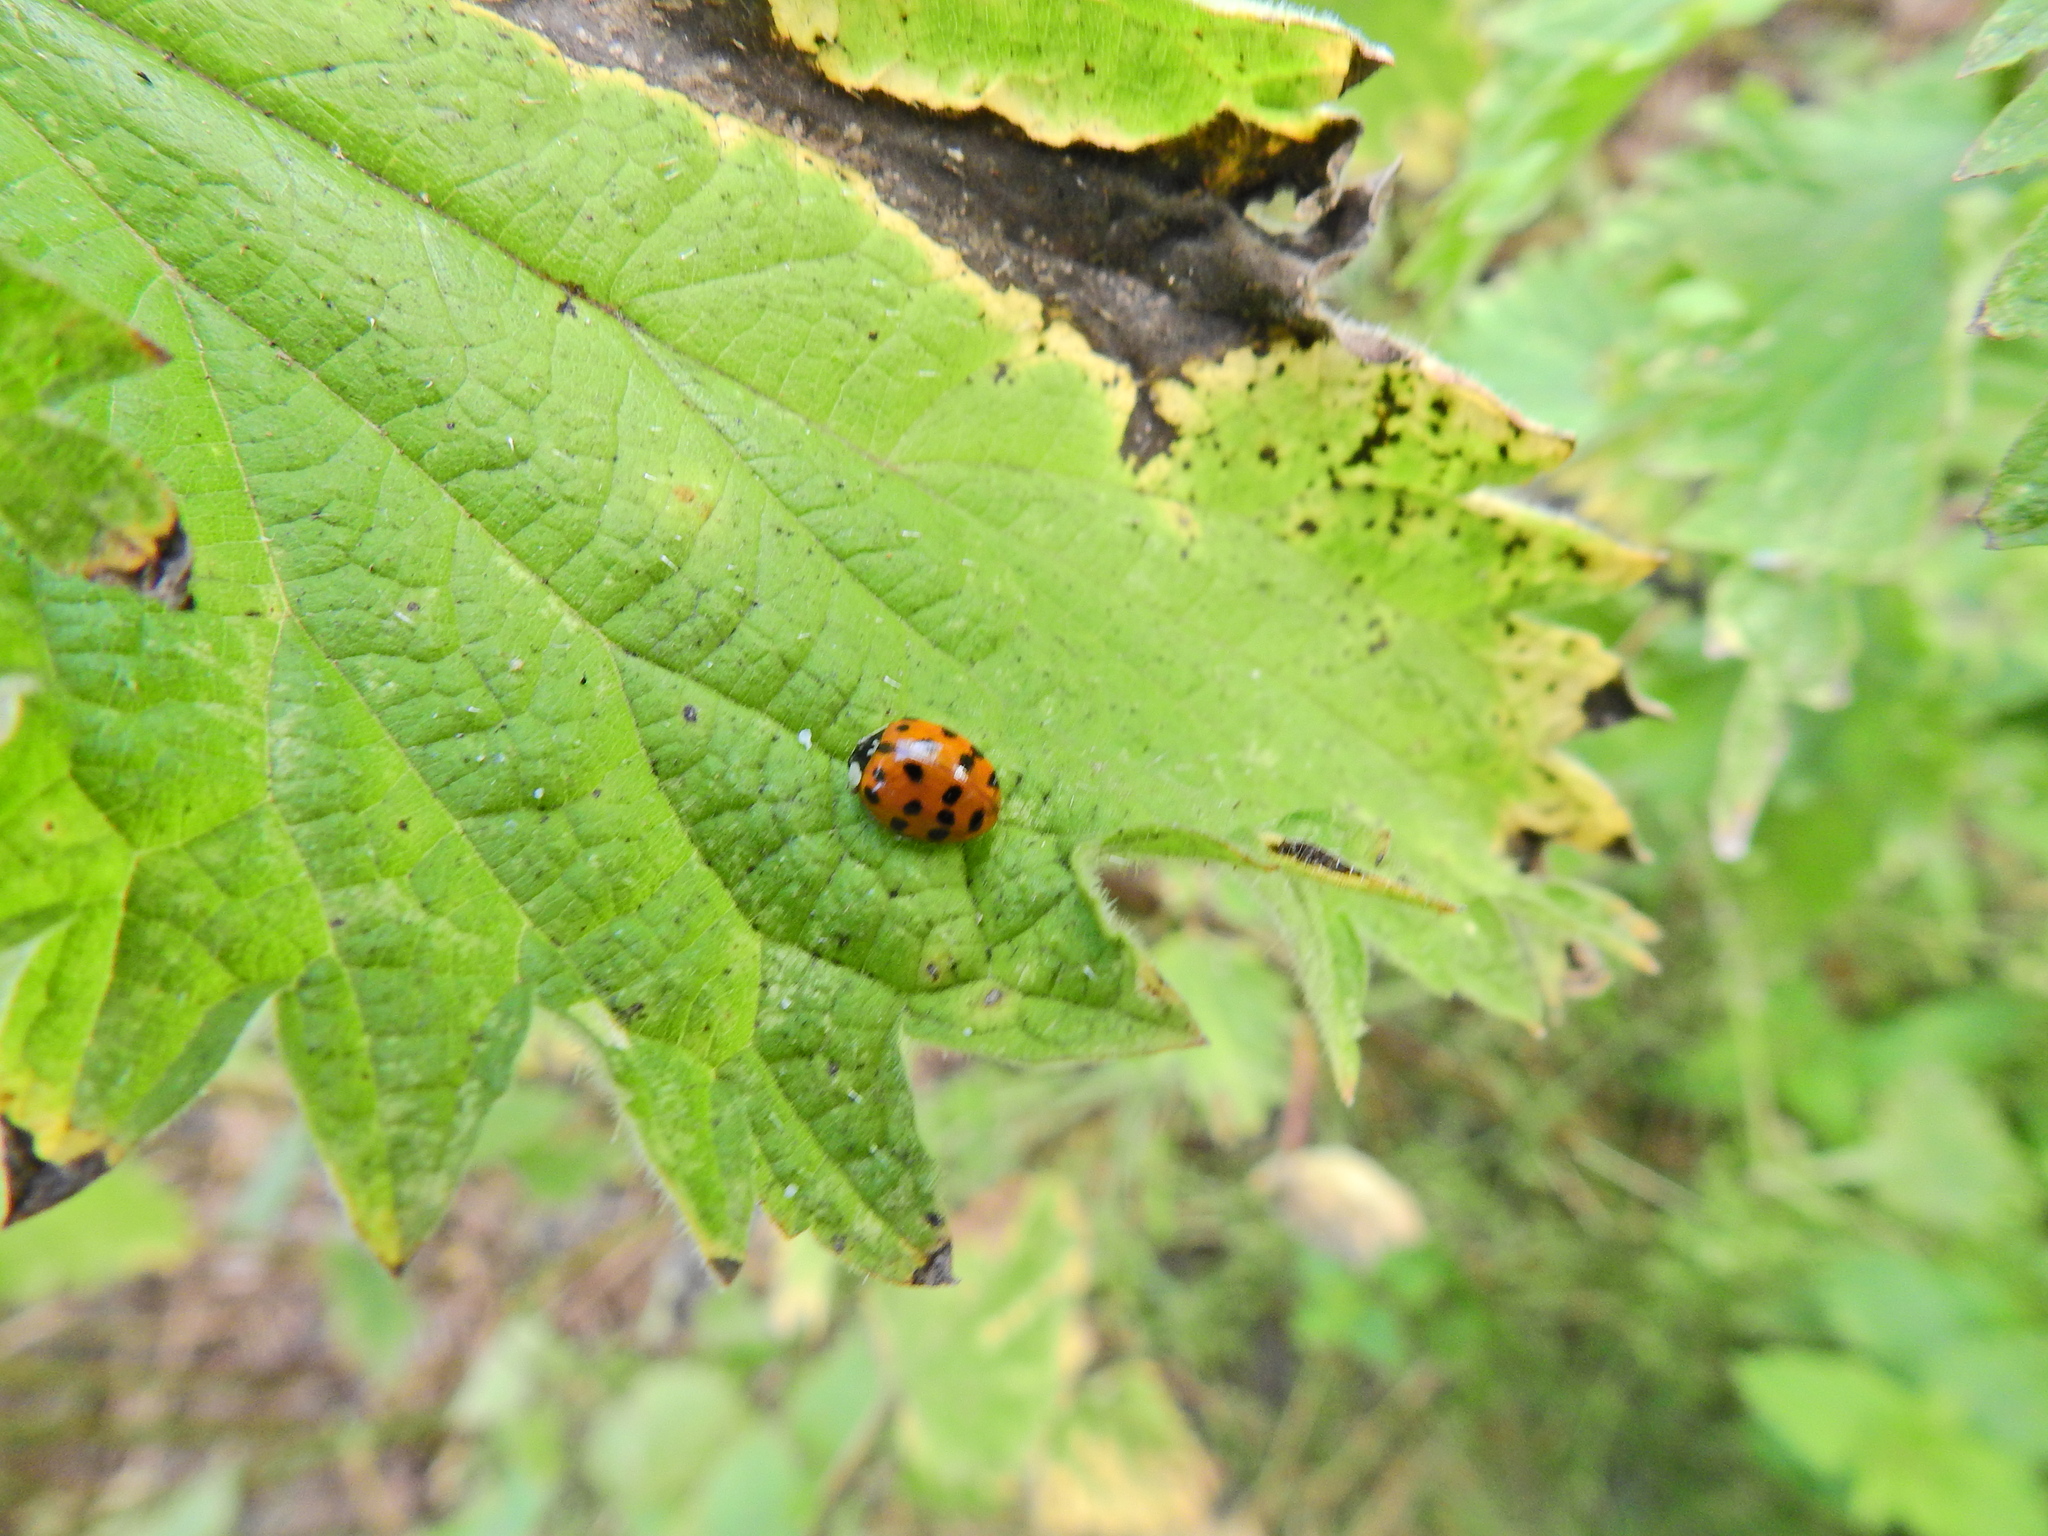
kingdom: Animalia
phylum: Arthropoda
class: Insecta
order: Coleoptera
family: Coccinellidae
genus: Harmonia
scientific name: Harmonia axyridis
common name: Harlequin ladybird
